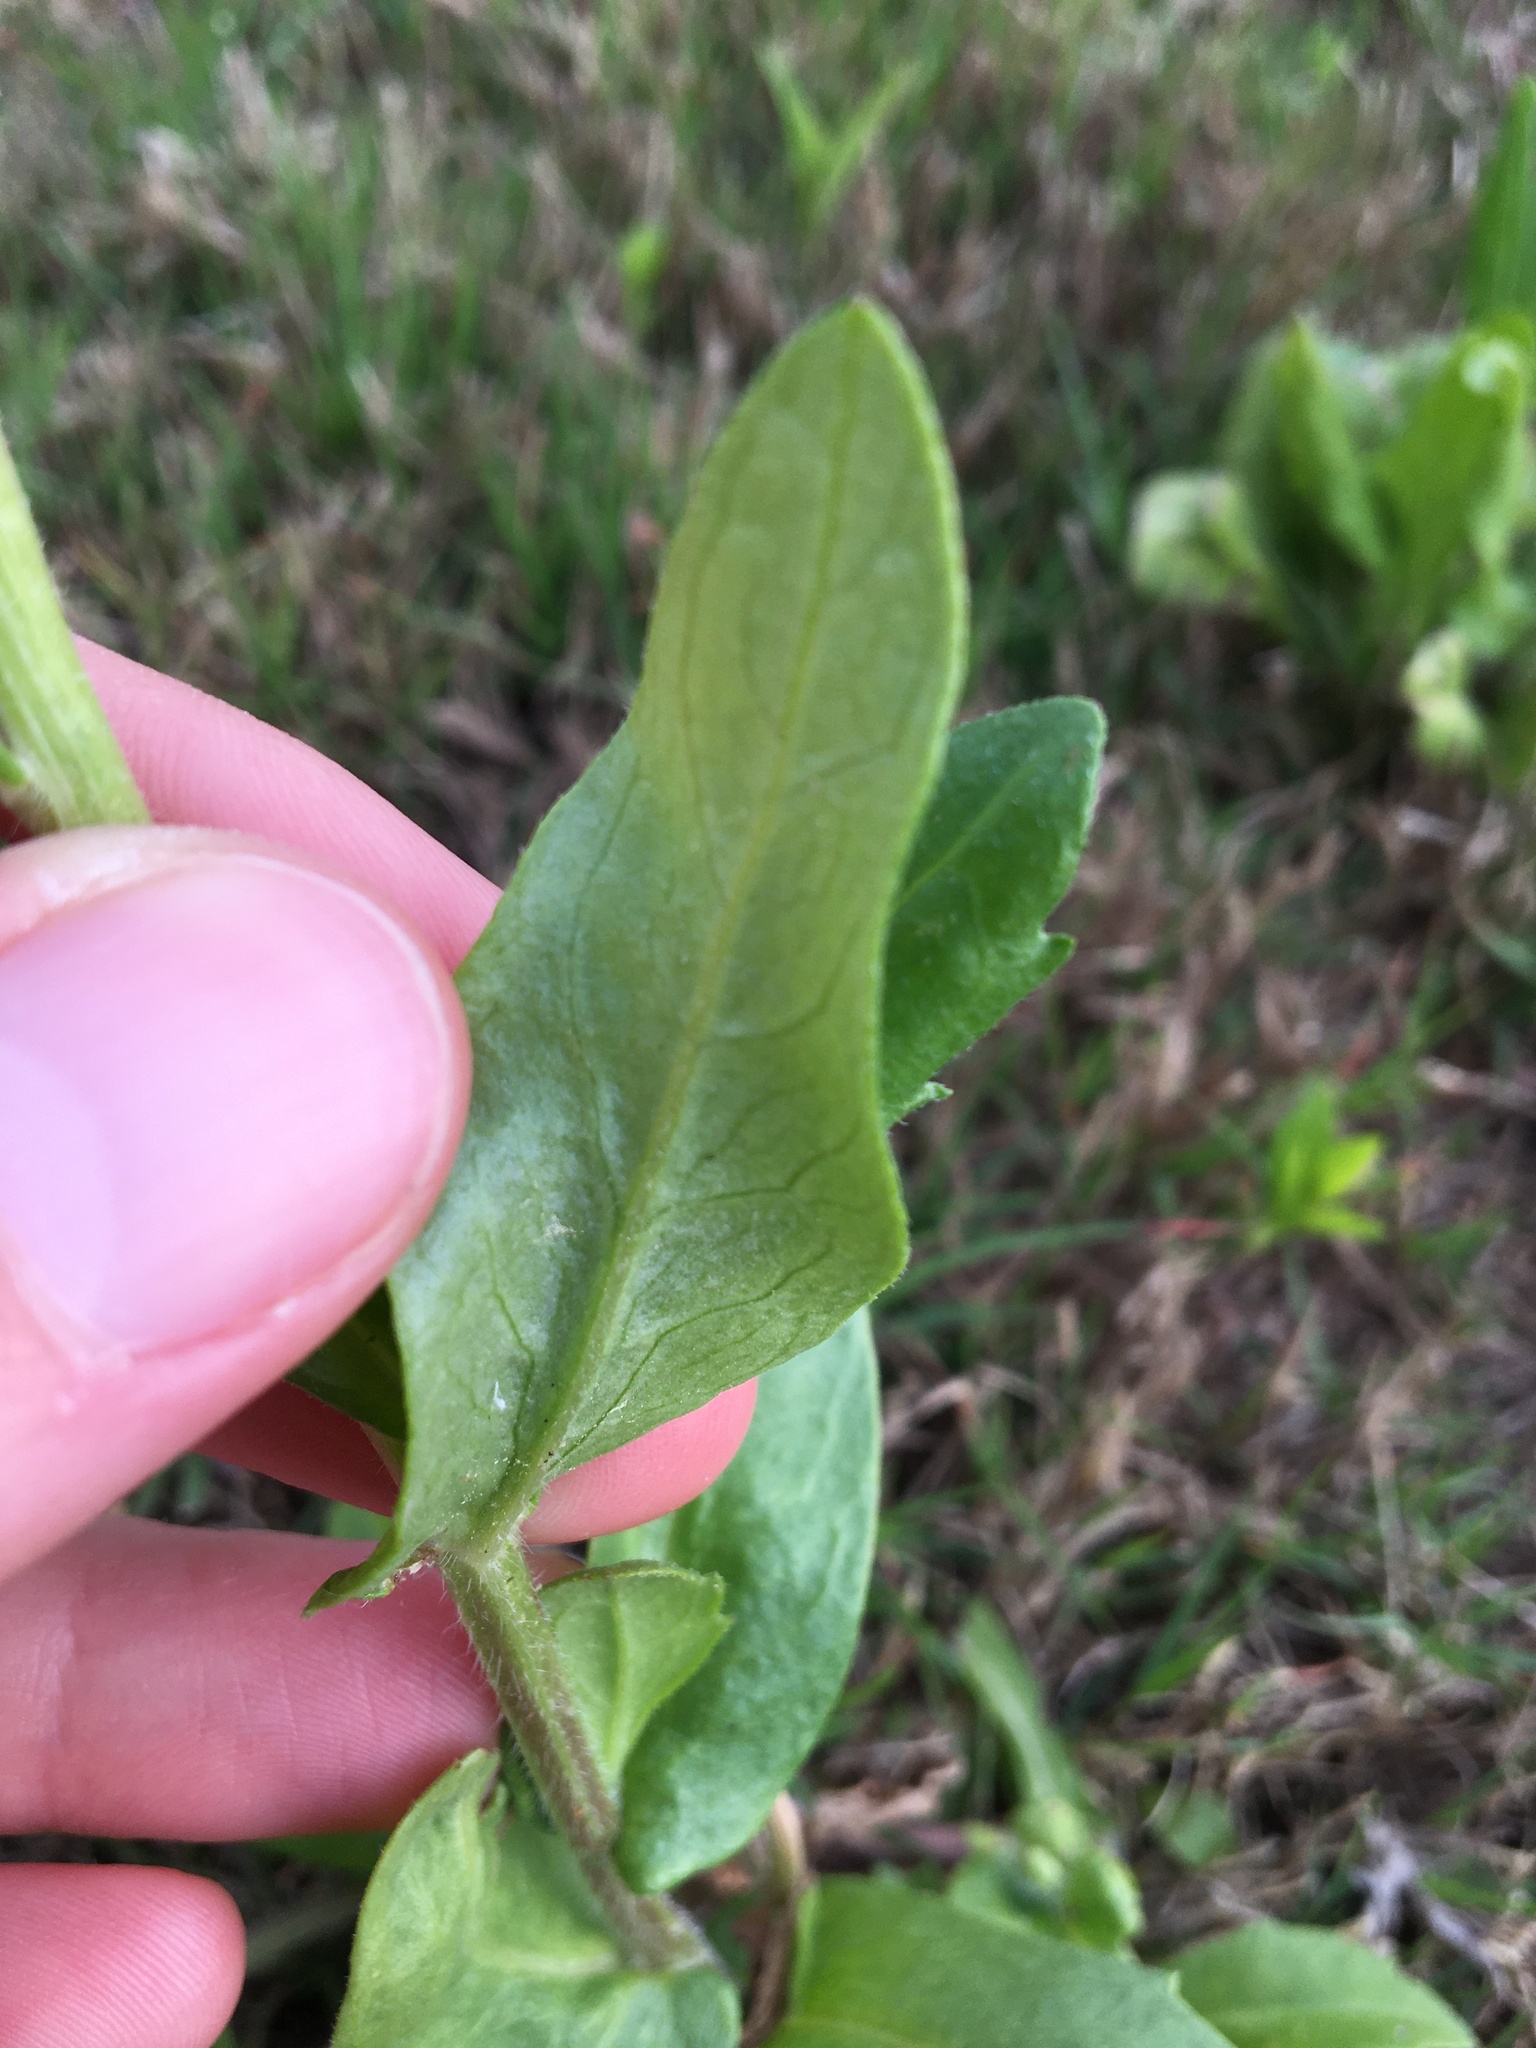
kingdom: Plantae
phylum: Tracheophyta
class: Magnoliopsida
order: Asterales
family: Asteraceae
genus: Erigeron
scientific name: Erigeron philadelphicus
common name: Robin's-plantain
